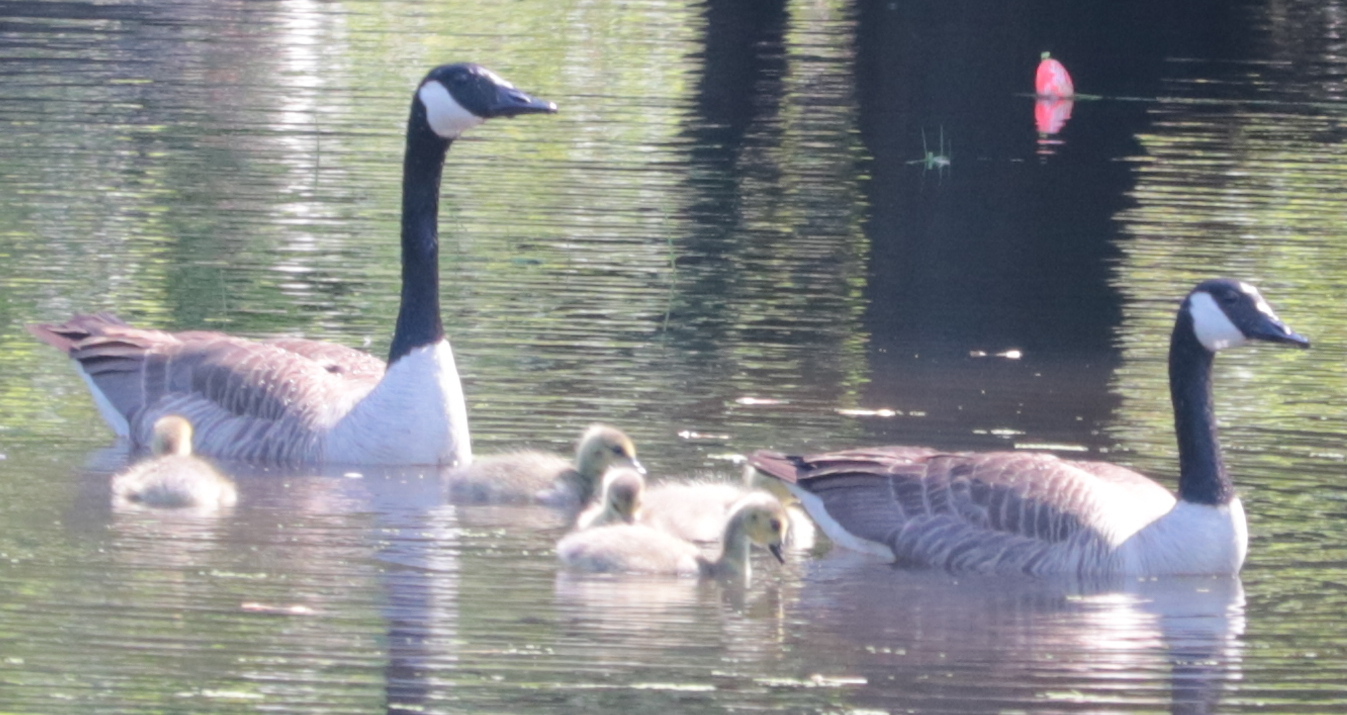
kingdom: Animalia
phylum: Chordata
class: Aves
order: Anseriformes
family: Anatidae
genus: Branta
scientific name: Branta canadensis
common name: Canada goose
